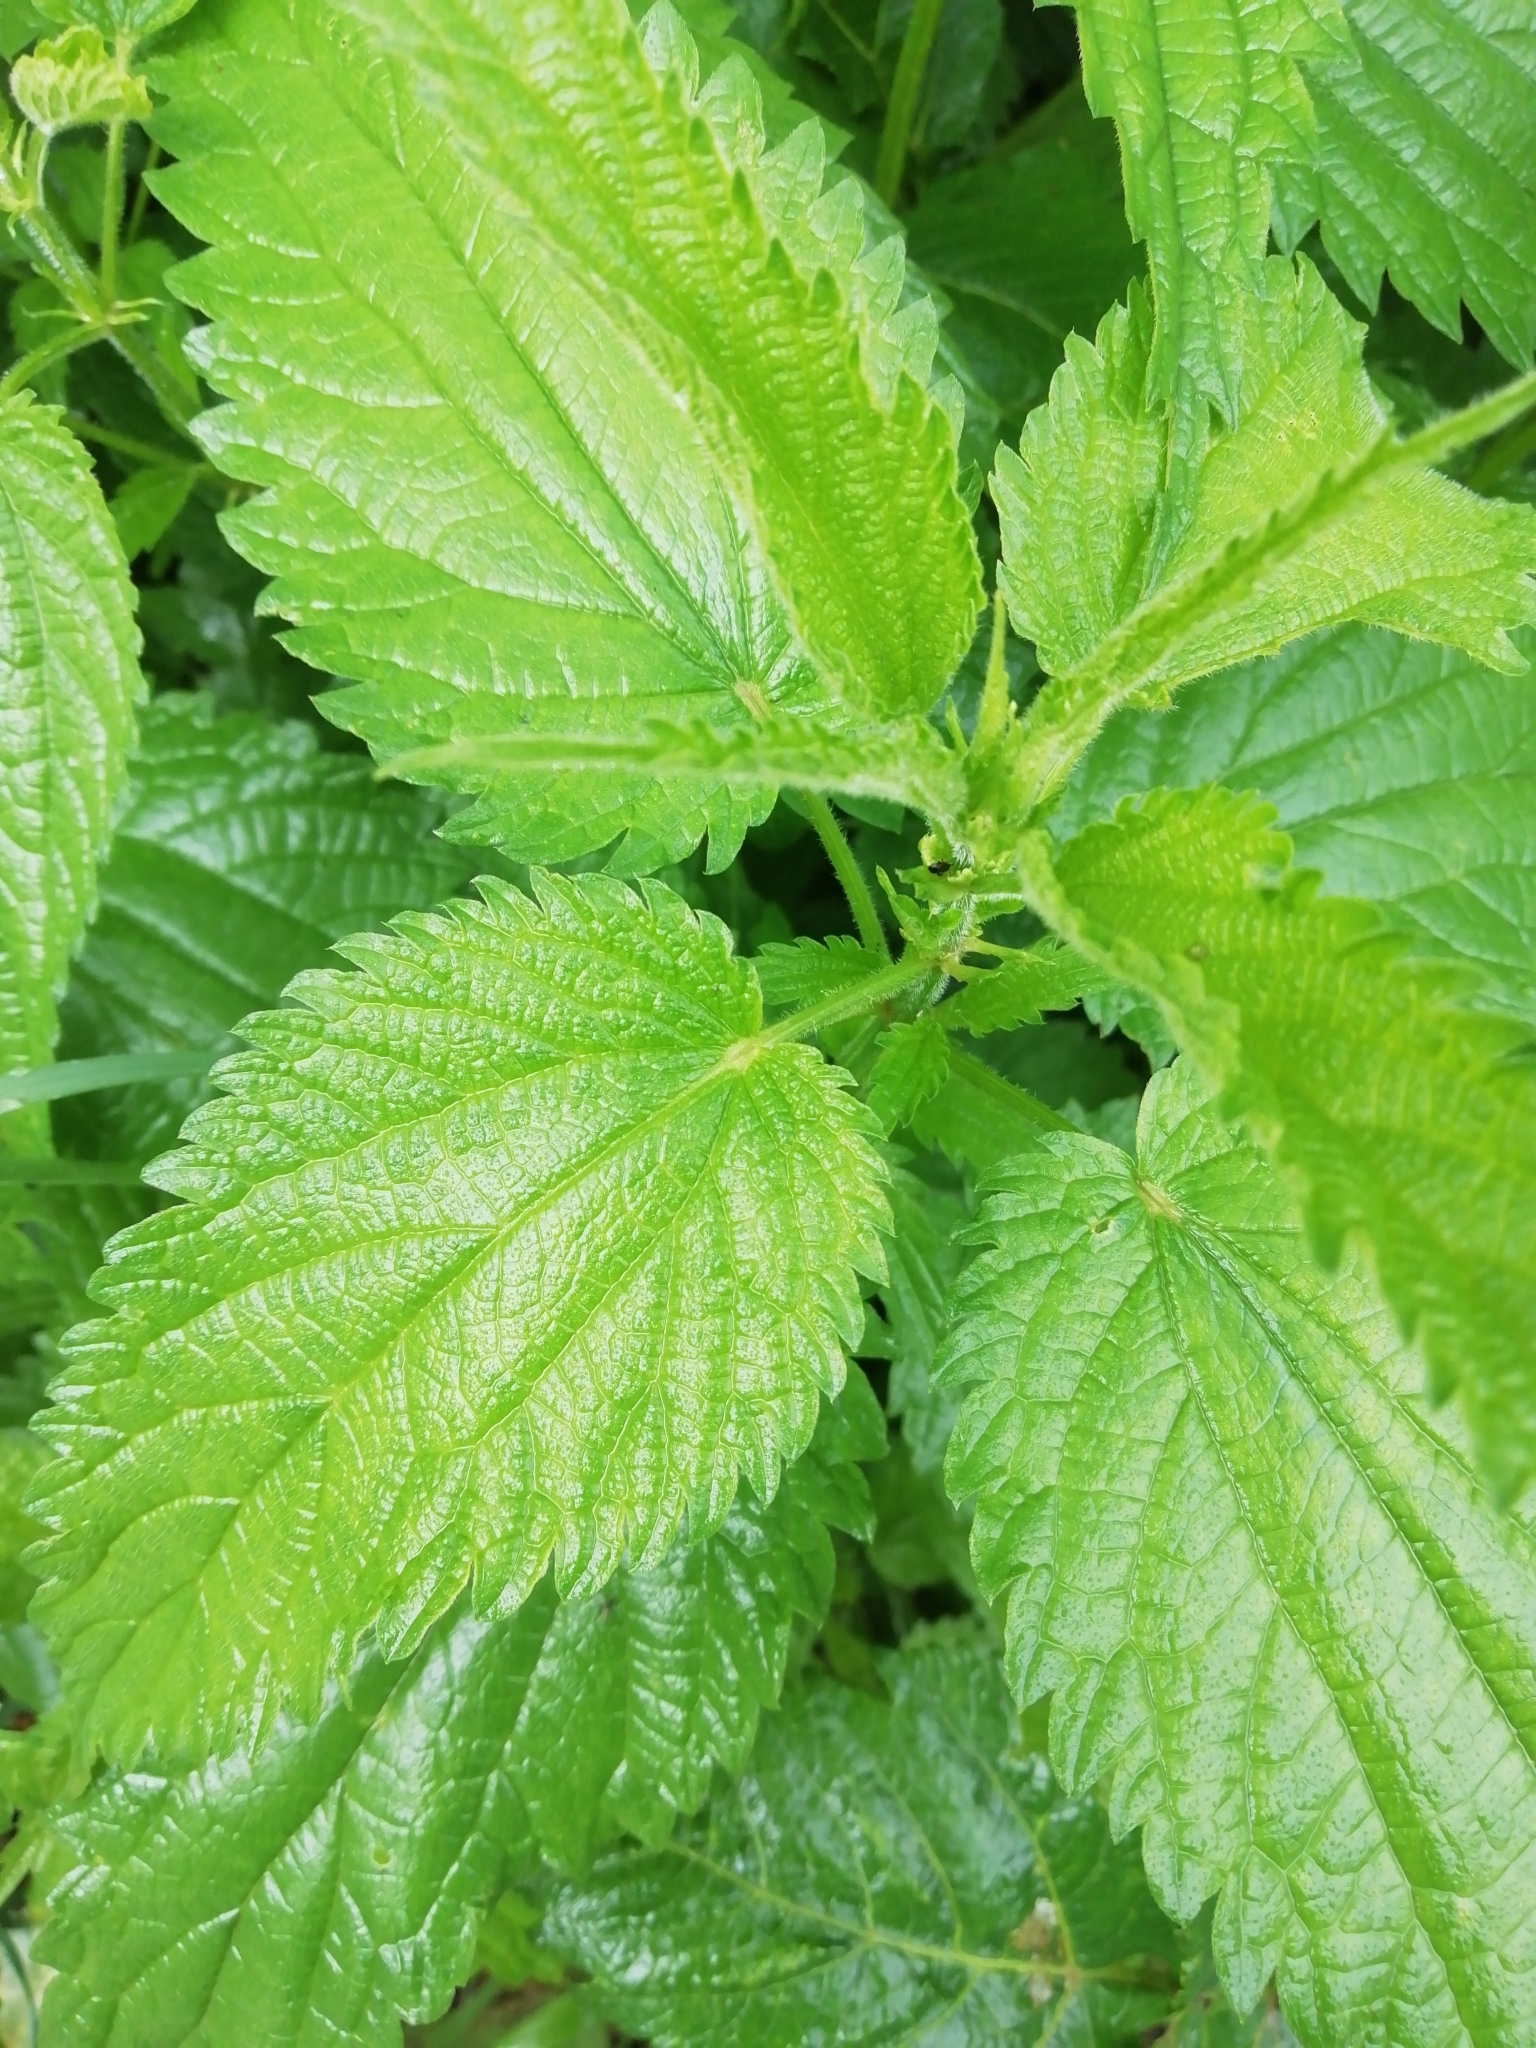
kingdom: Plantae
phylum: Tracheophyta
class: Magnoliopsida
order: Rosales
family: Urticaceae
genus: Urtica
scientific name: Urtica dioica
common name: Common nettle
